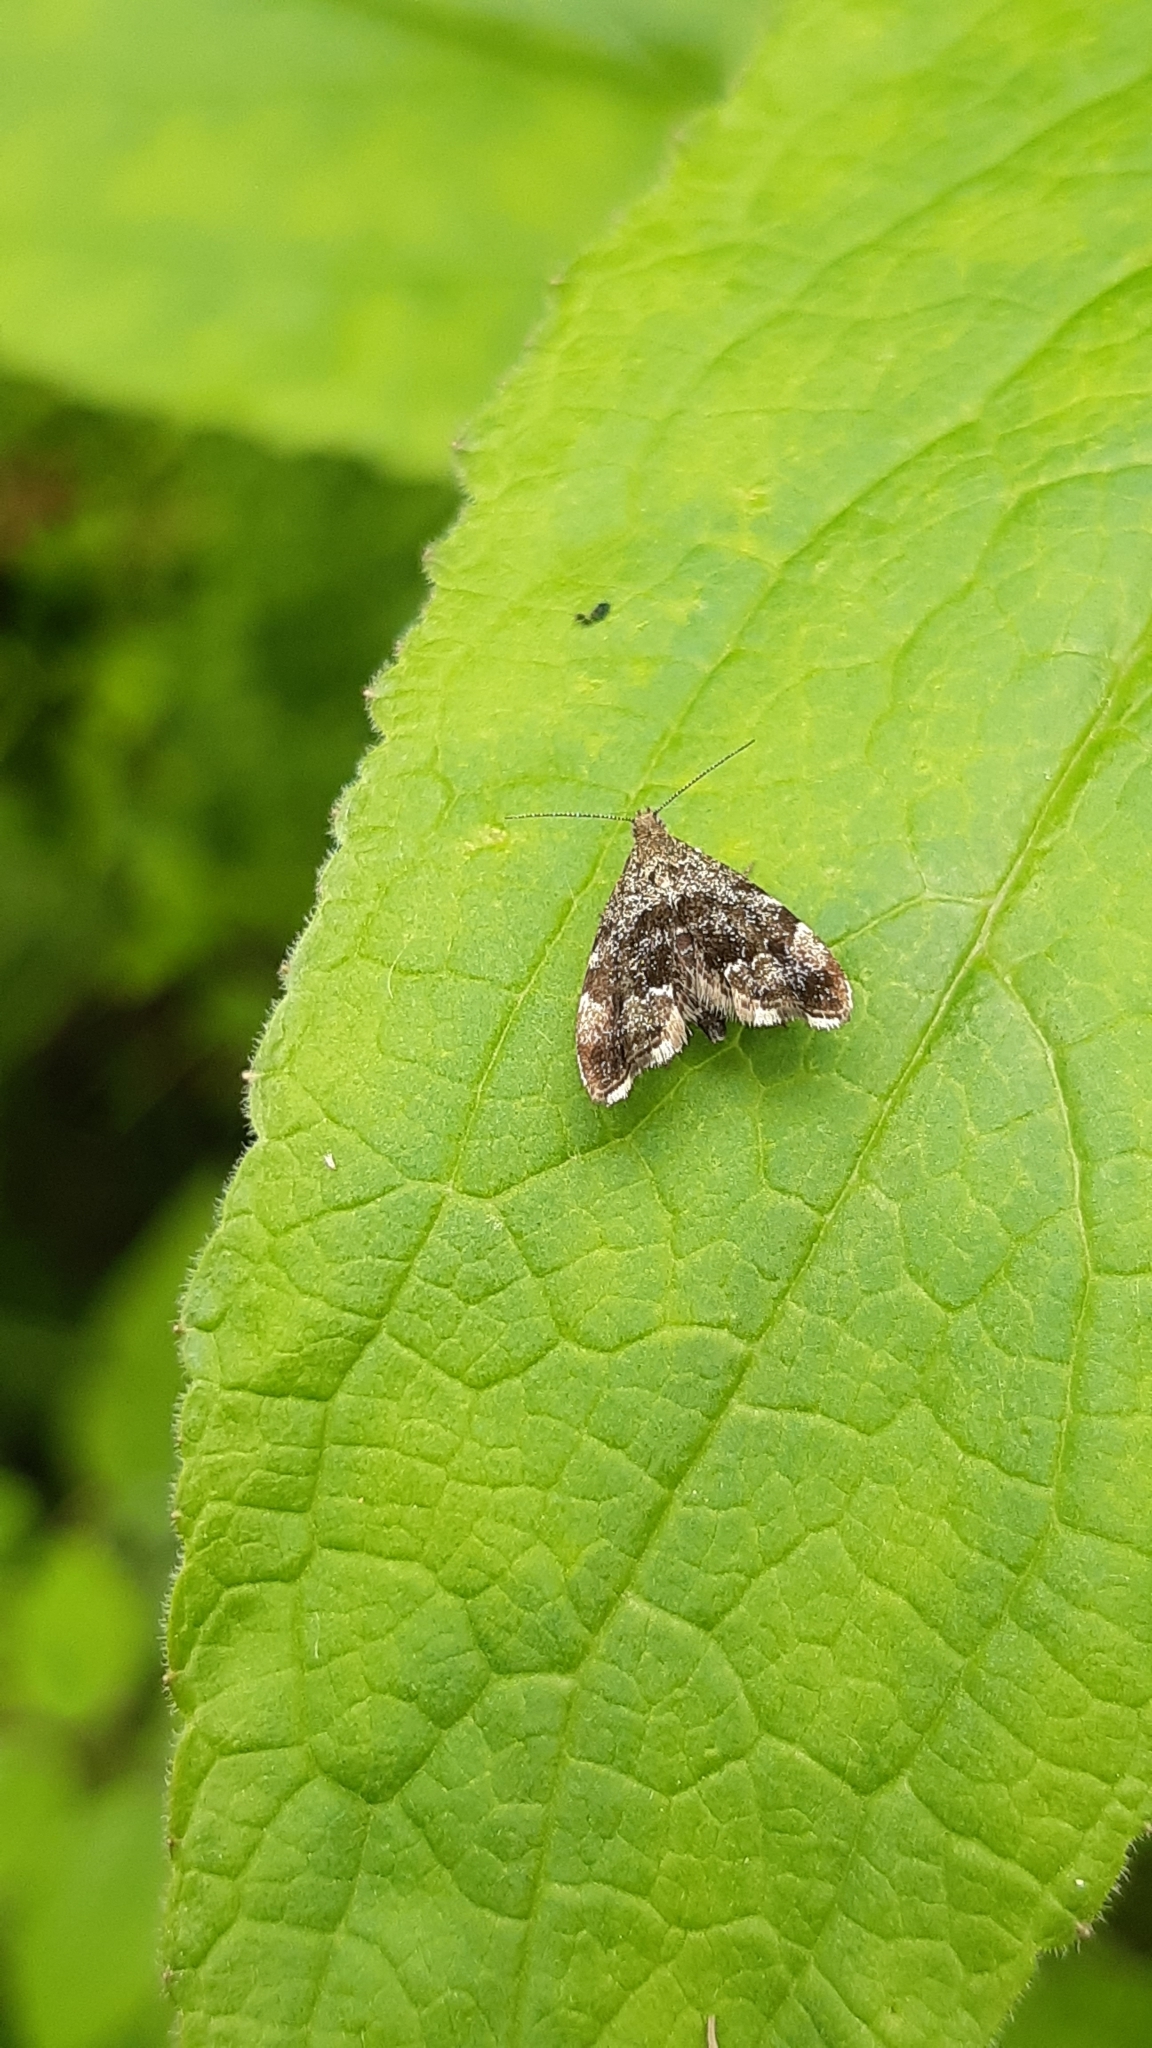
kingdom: Animalia
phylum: Arthropoda
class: Insecta
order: Lepidoptera
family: Choreutidae
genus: Anthophila
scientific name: Anthophila fabriciana
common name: Nettle-tap
